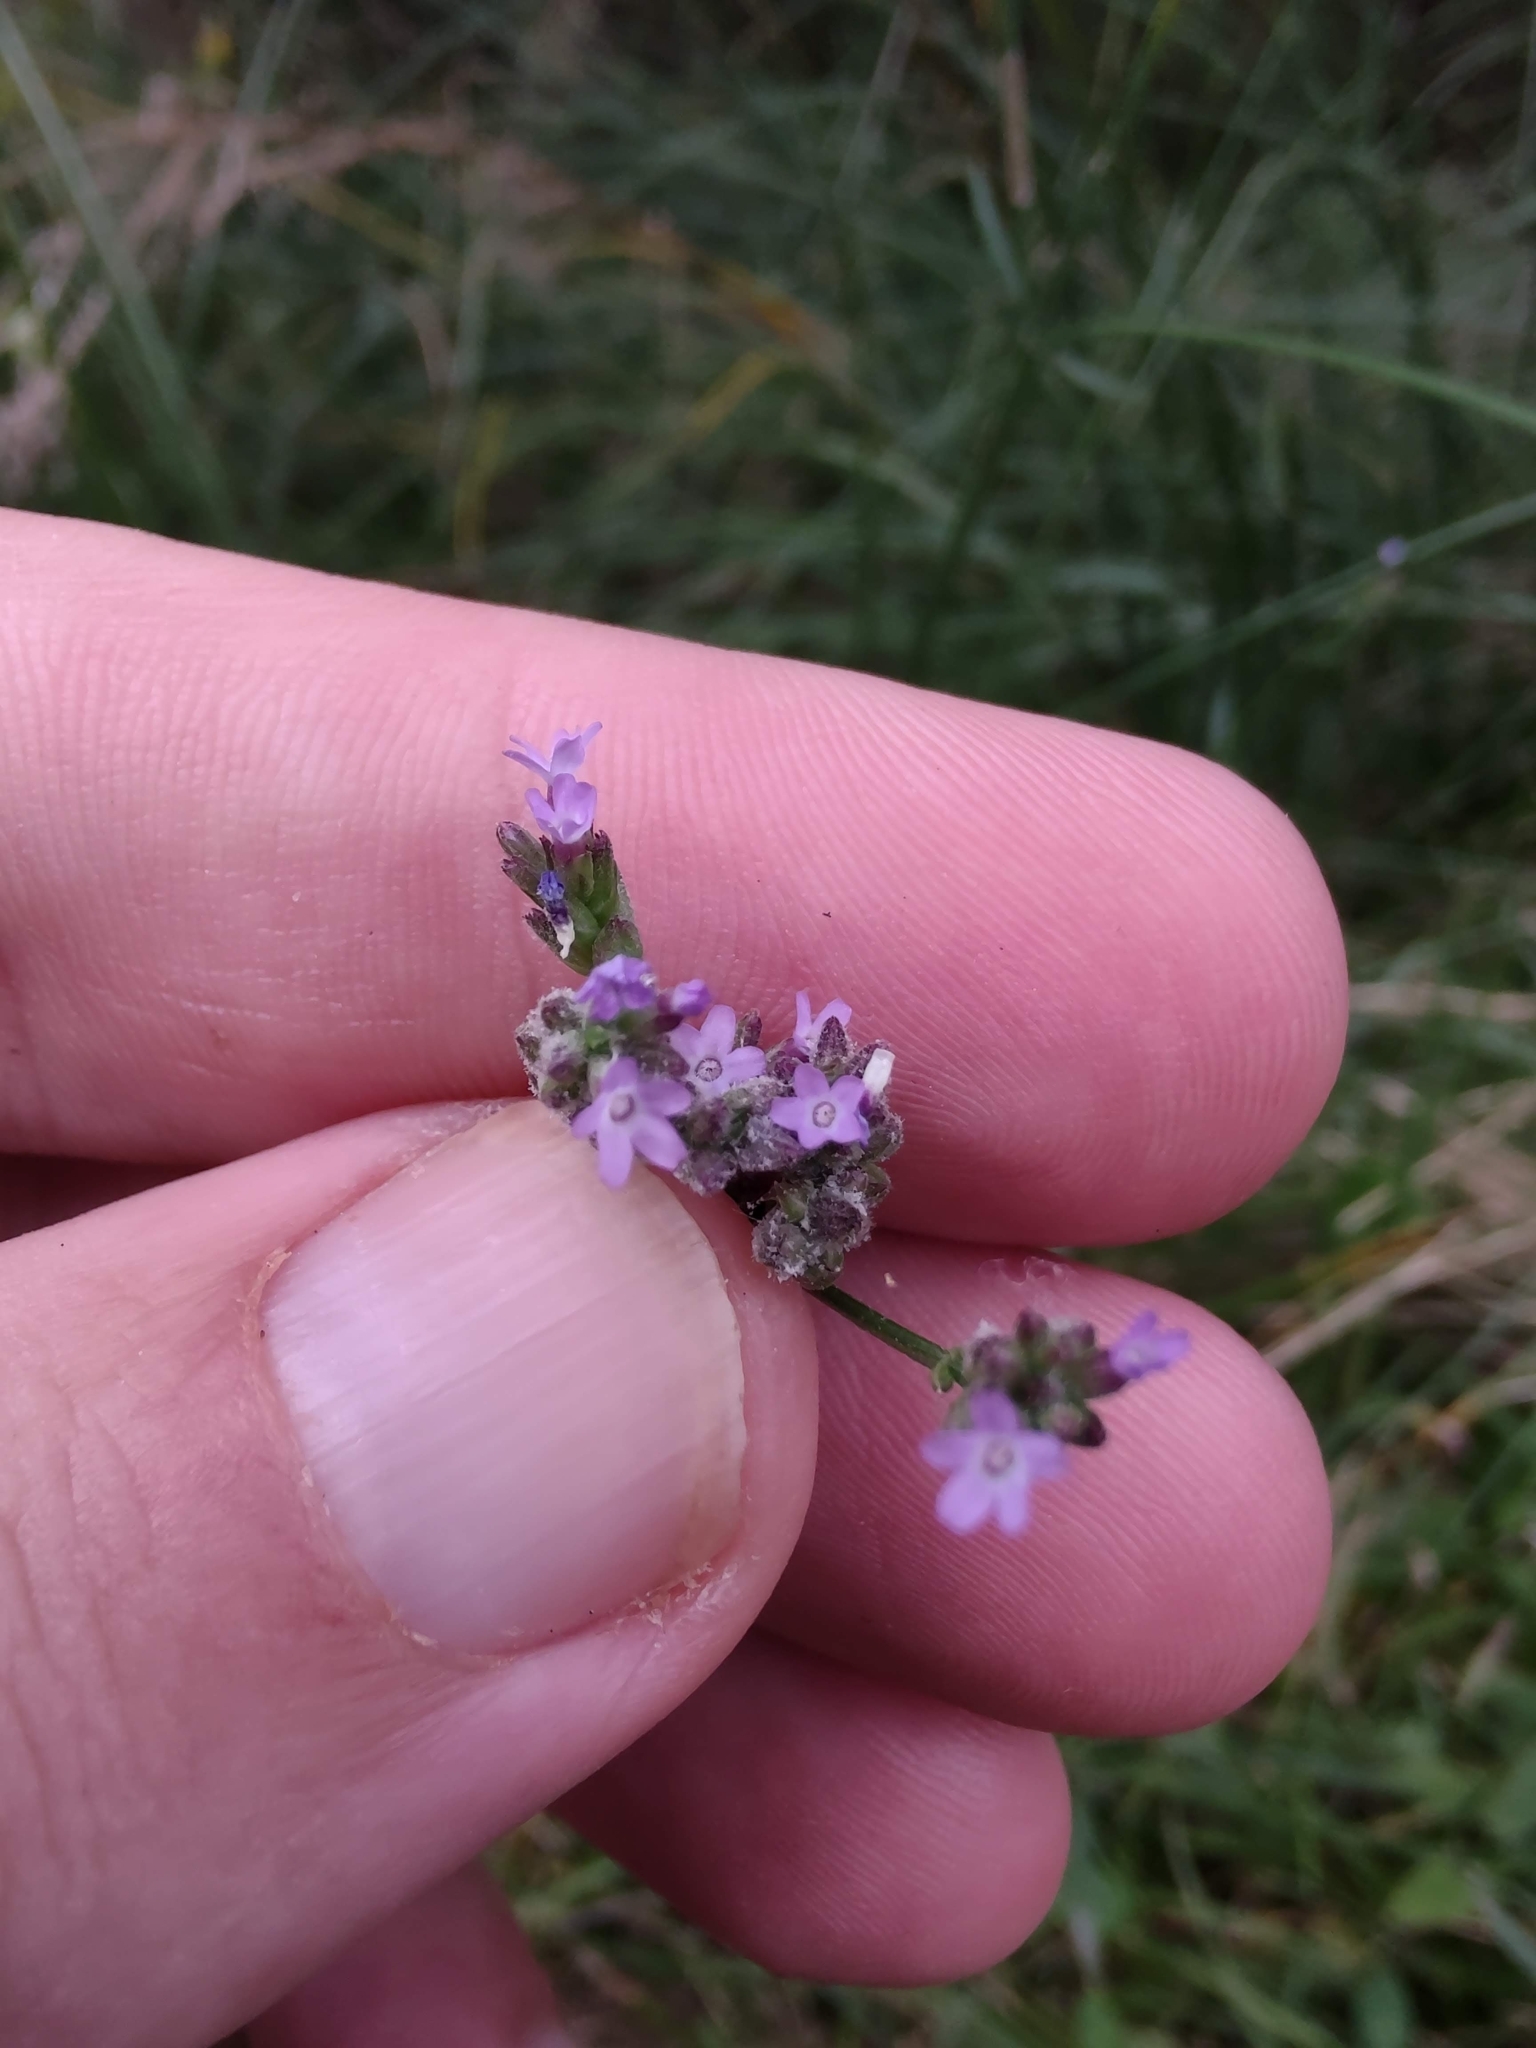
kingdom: Plantae
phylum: Tracheophyta
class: Magnoliopsida
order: Lamiales
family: Verbenaceae
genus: Verbena
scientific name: Verbena montevidensis
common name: Uruguayan vervain
